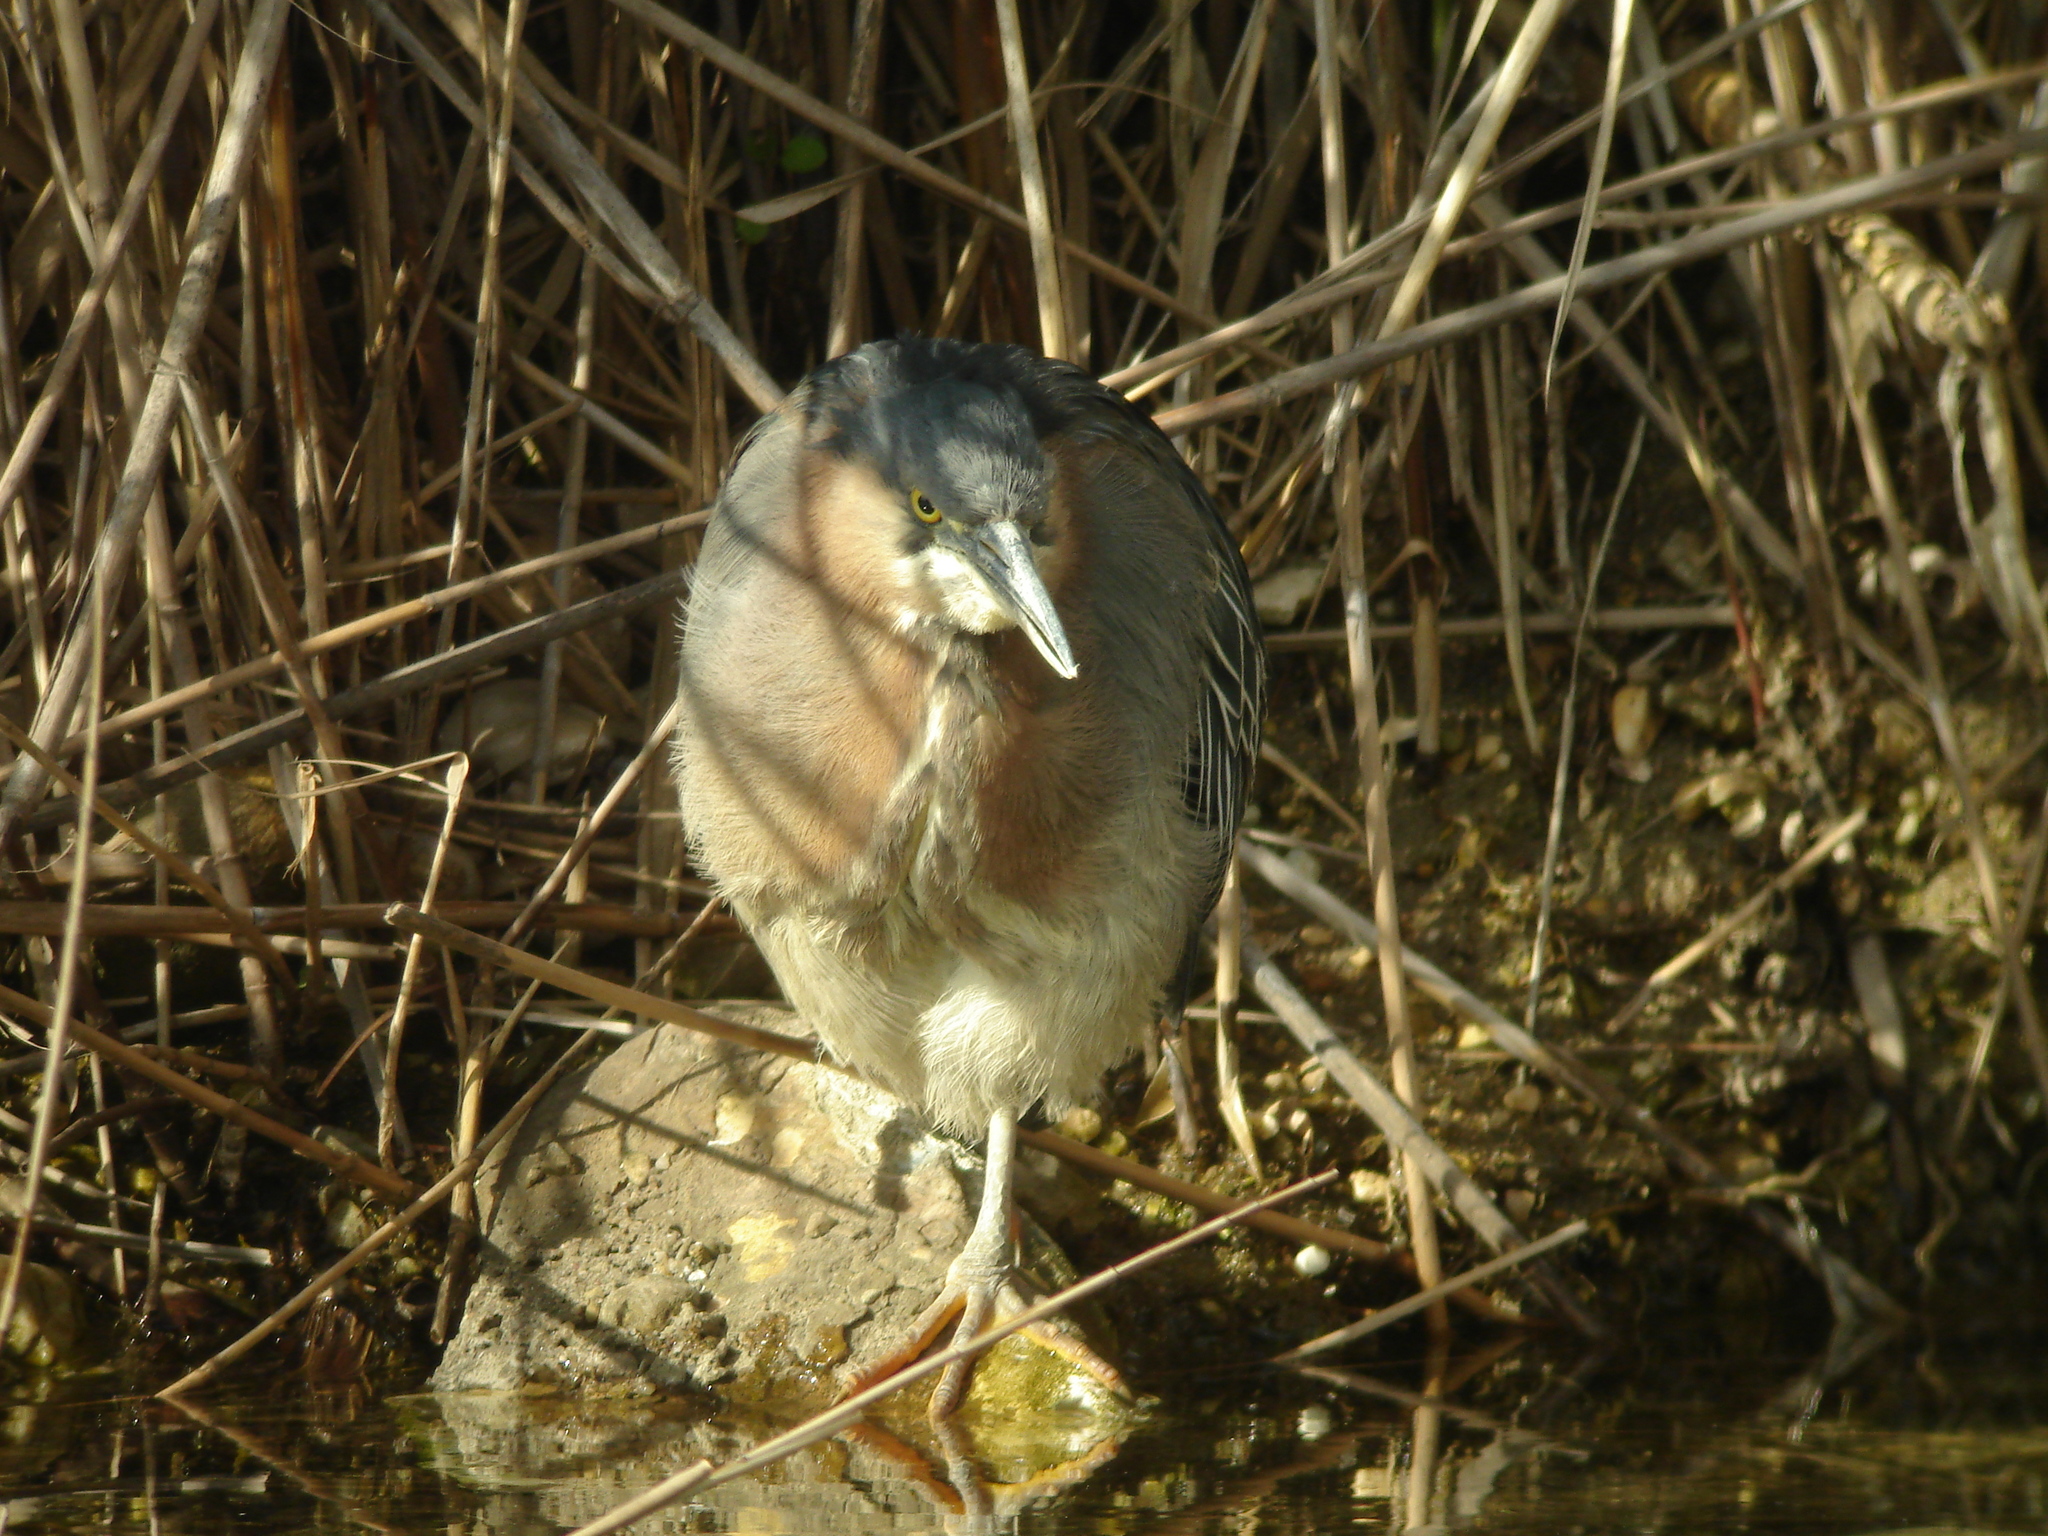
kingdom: Animalia
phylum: Chordata
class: Aves
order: Pelecaniformes
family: Ardeidae
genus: Butorides
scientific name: Butorides virescens
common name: Green heron
